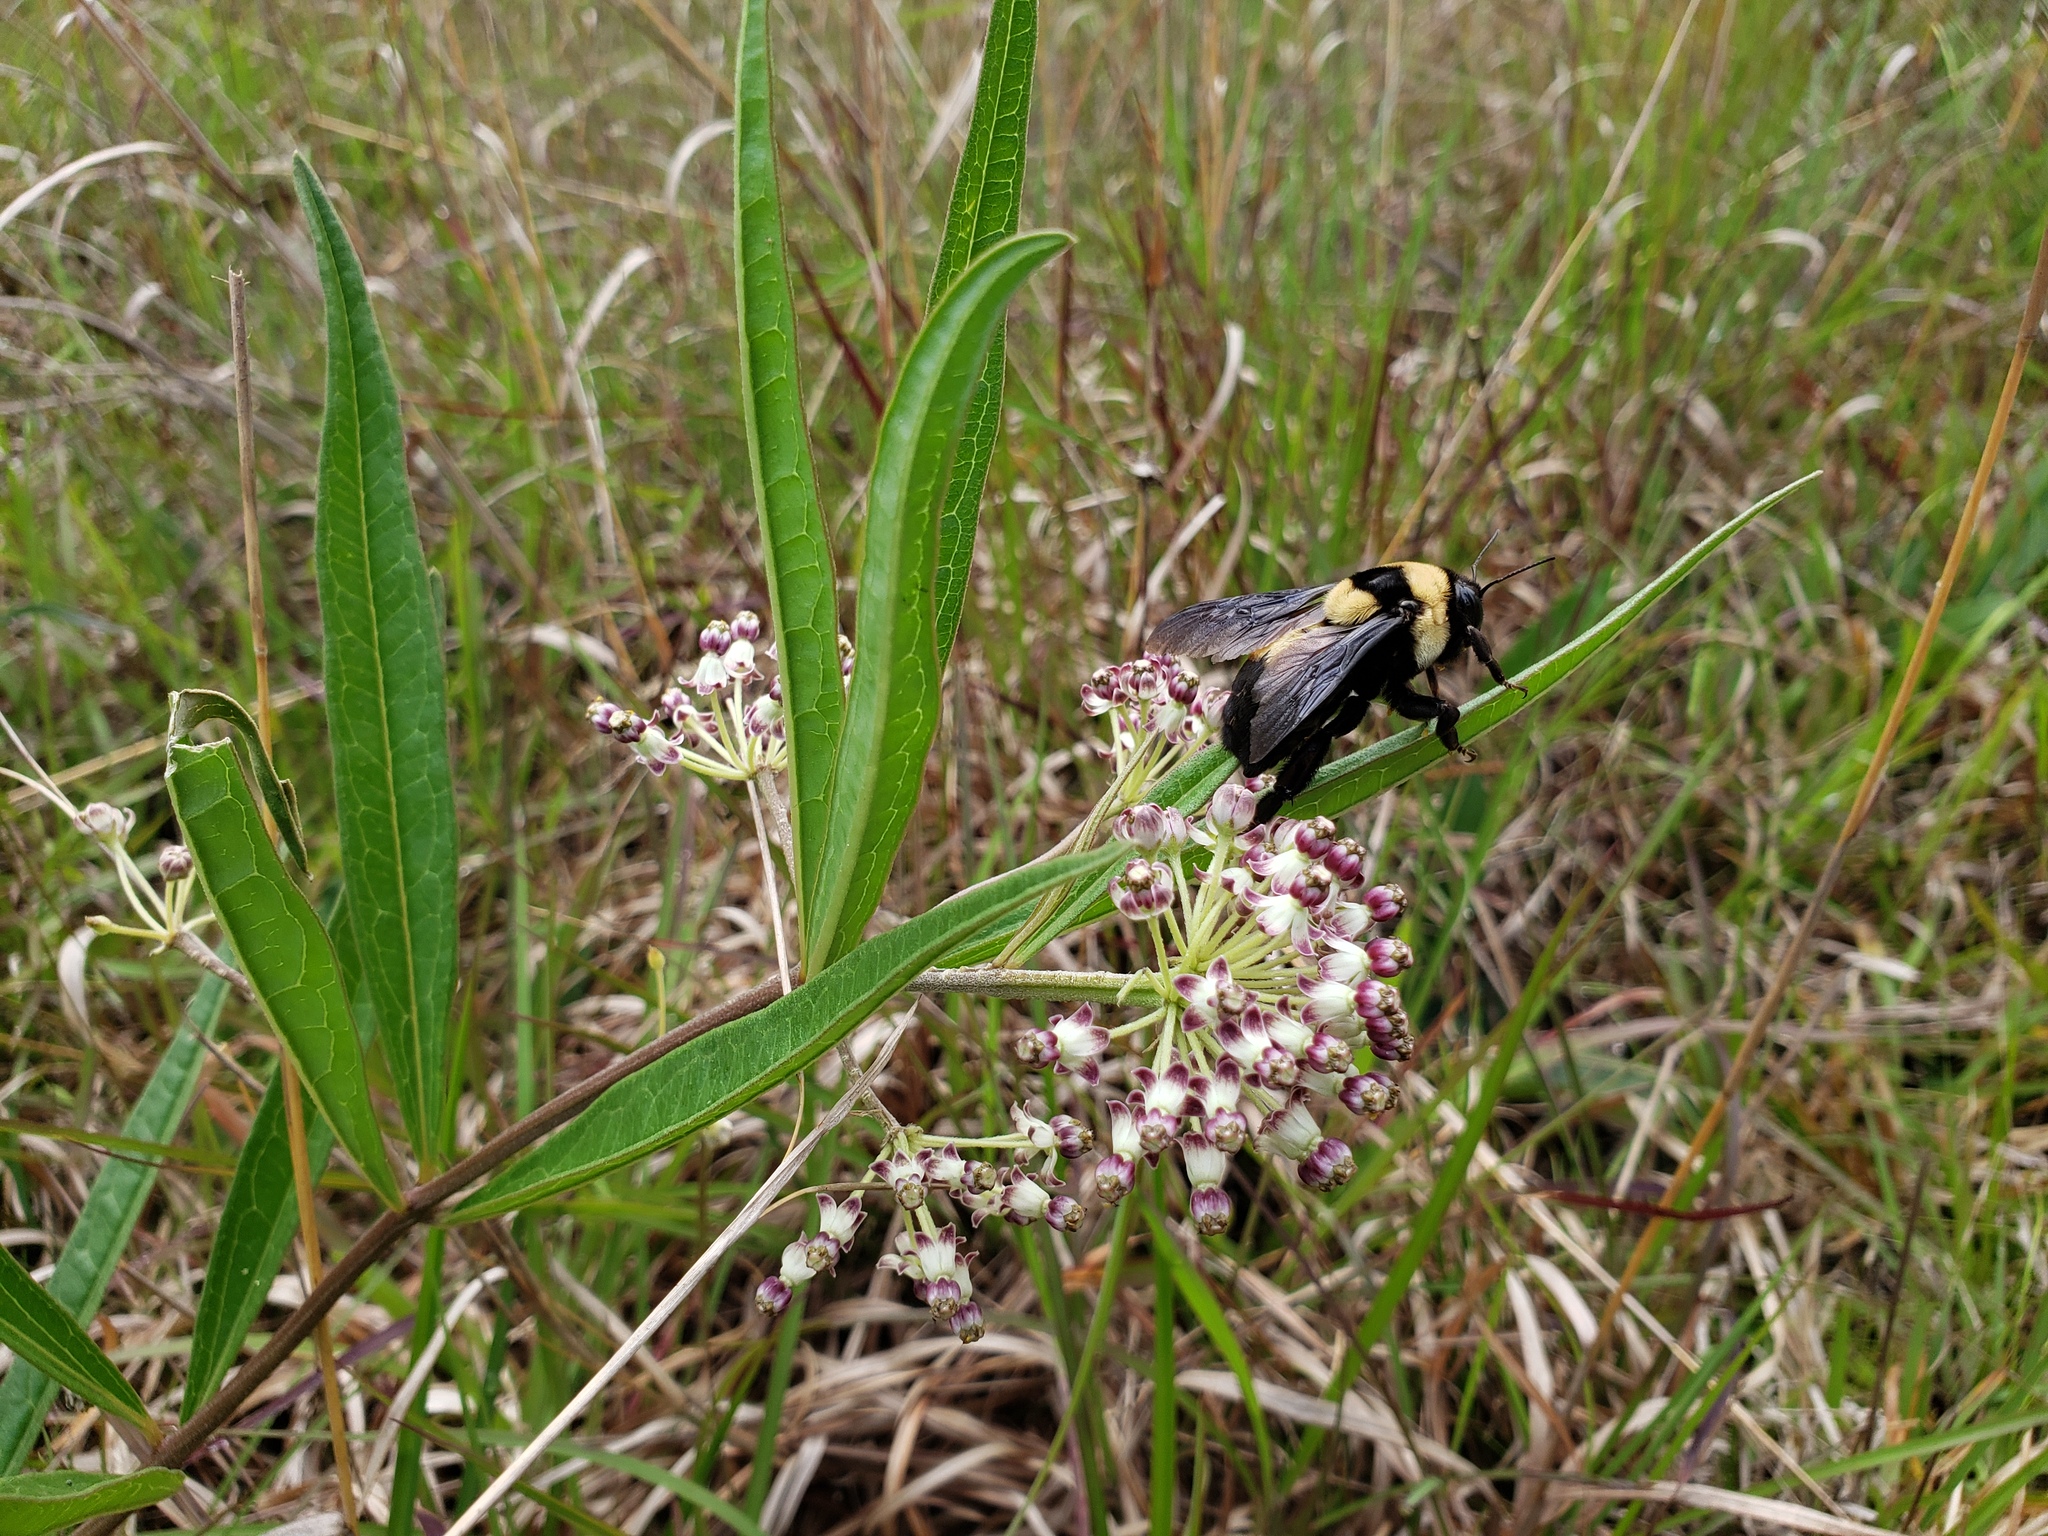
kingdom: Animalia
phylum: Arthropoda
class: Insecta
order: Hymenoptera
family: Apidae
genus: Bombus
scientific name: Bombus fraternus
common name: Southern plains bumble bee
